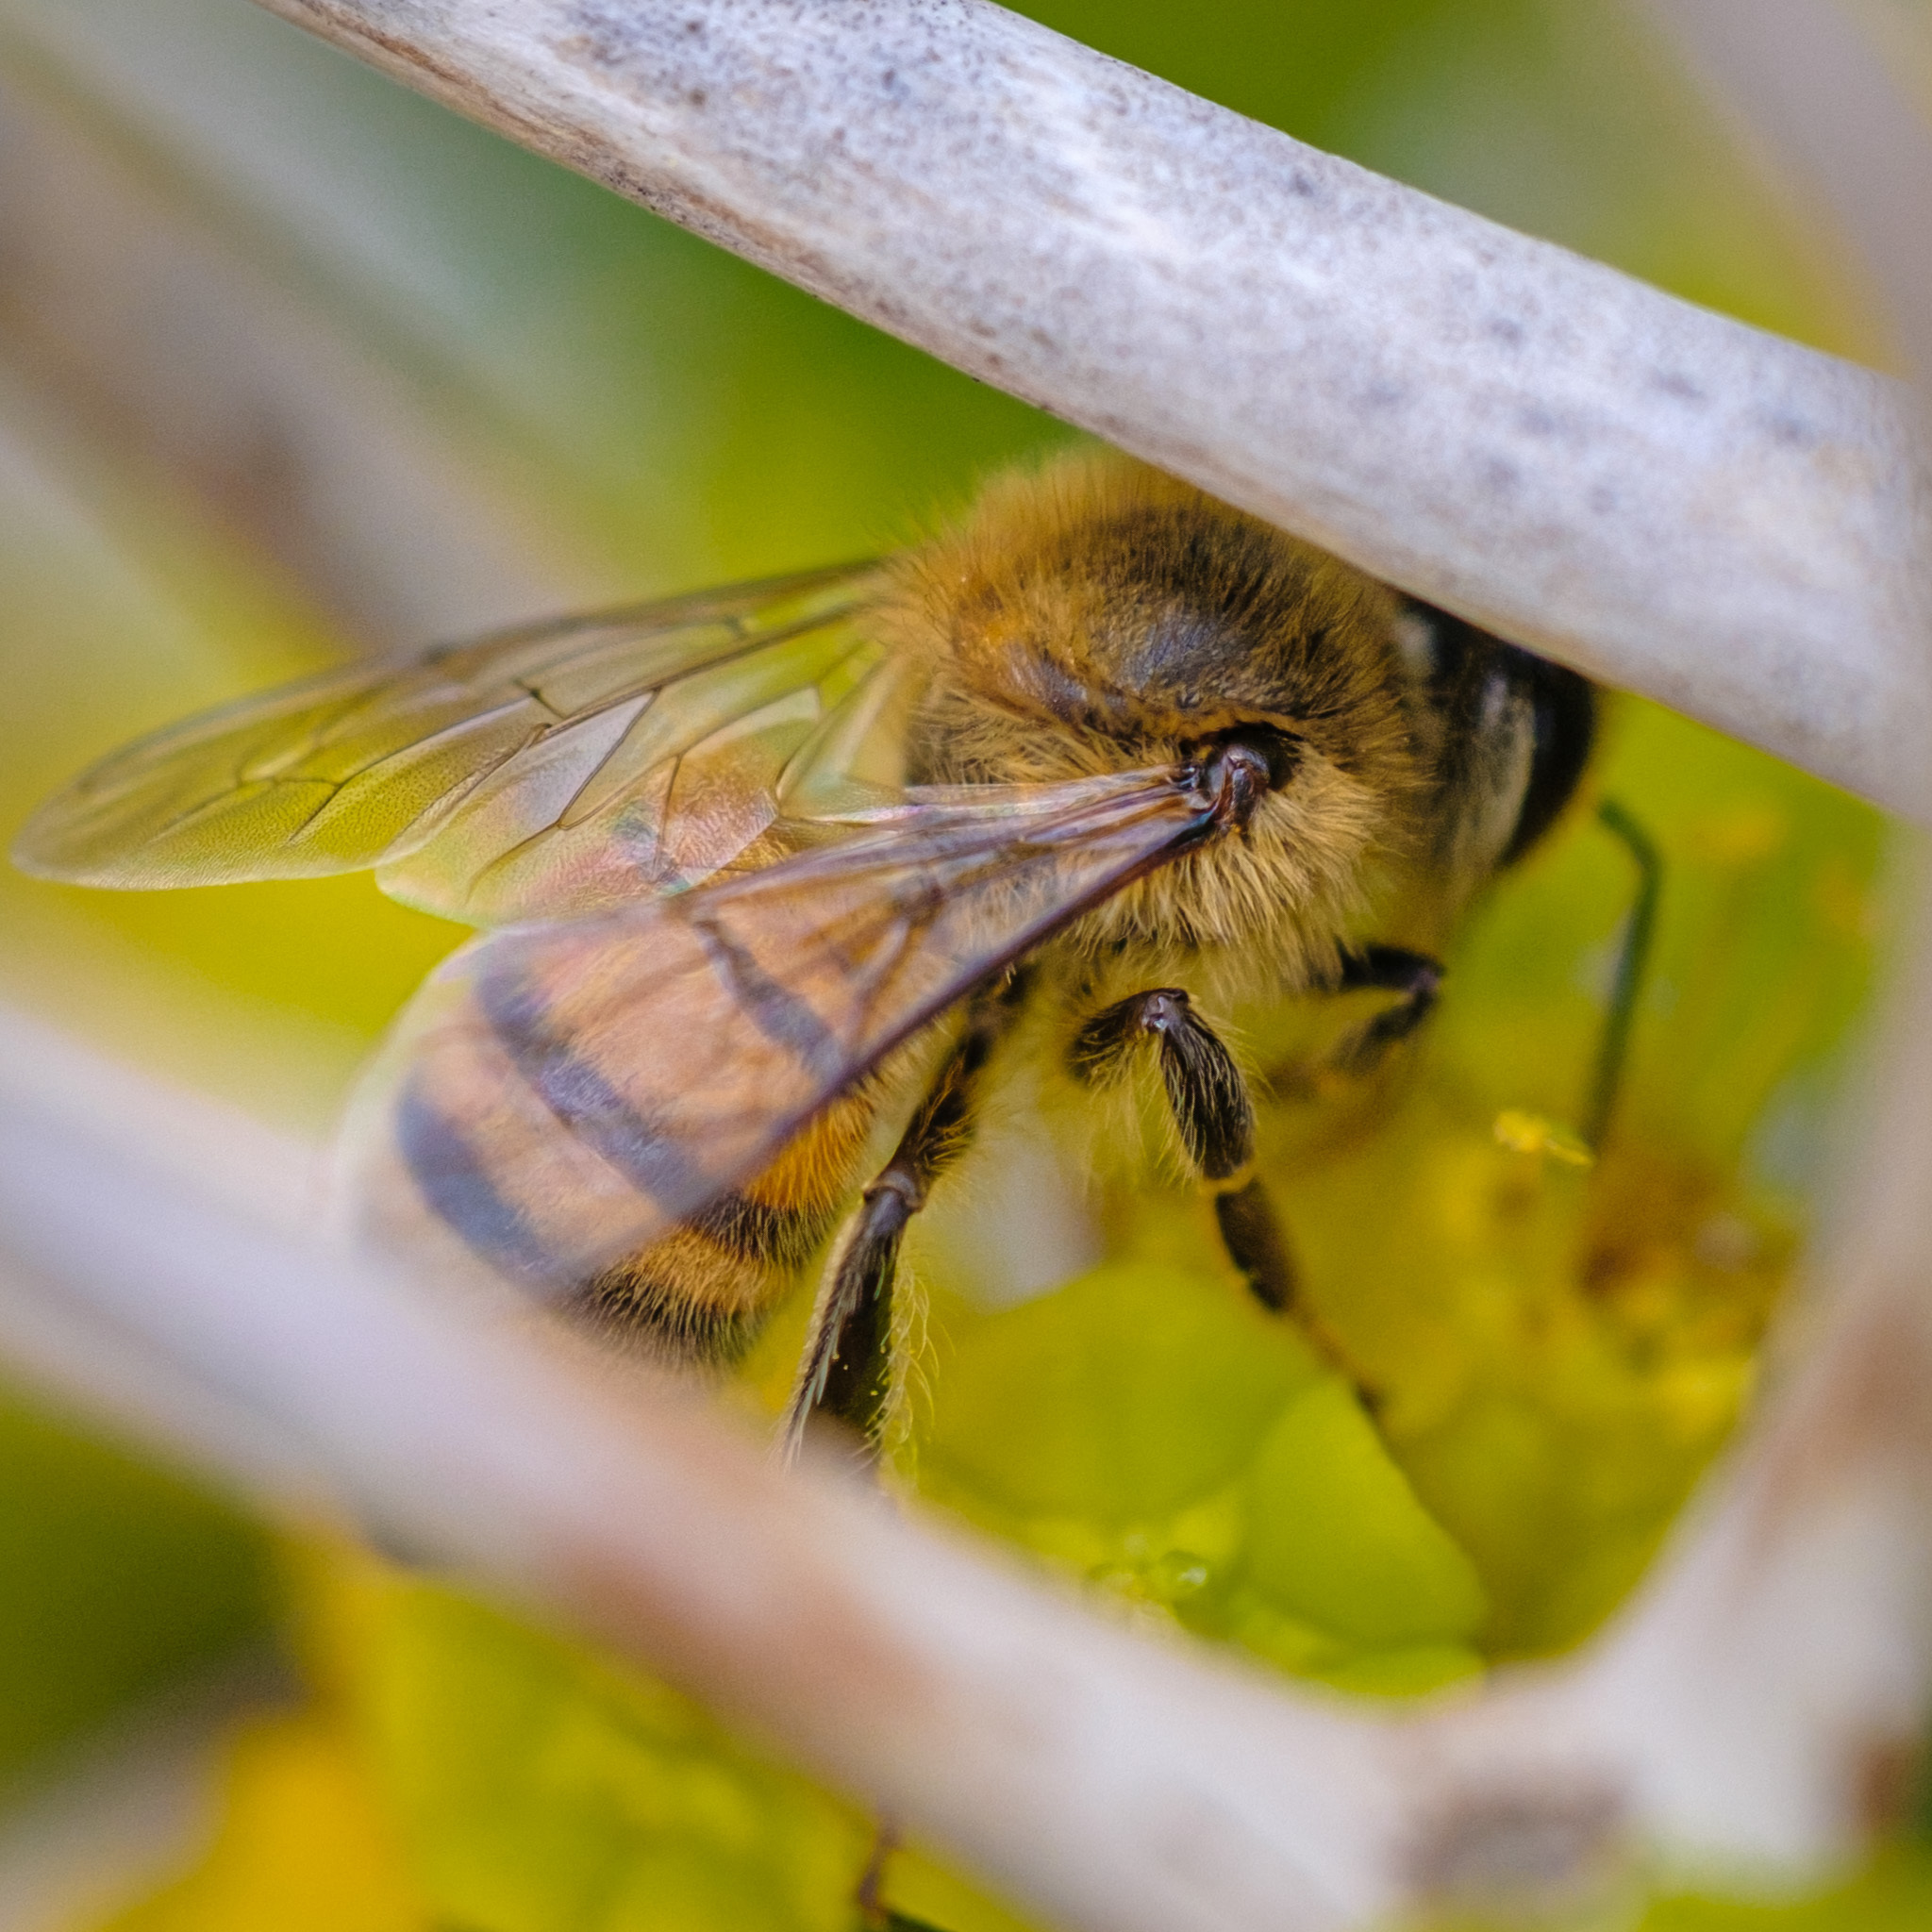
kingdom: Animalia
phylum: Arthropoda
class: Insecta
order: Hymenoptera
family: Apidae
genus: Apis
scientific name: Apis mellifera
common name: Honey bee
